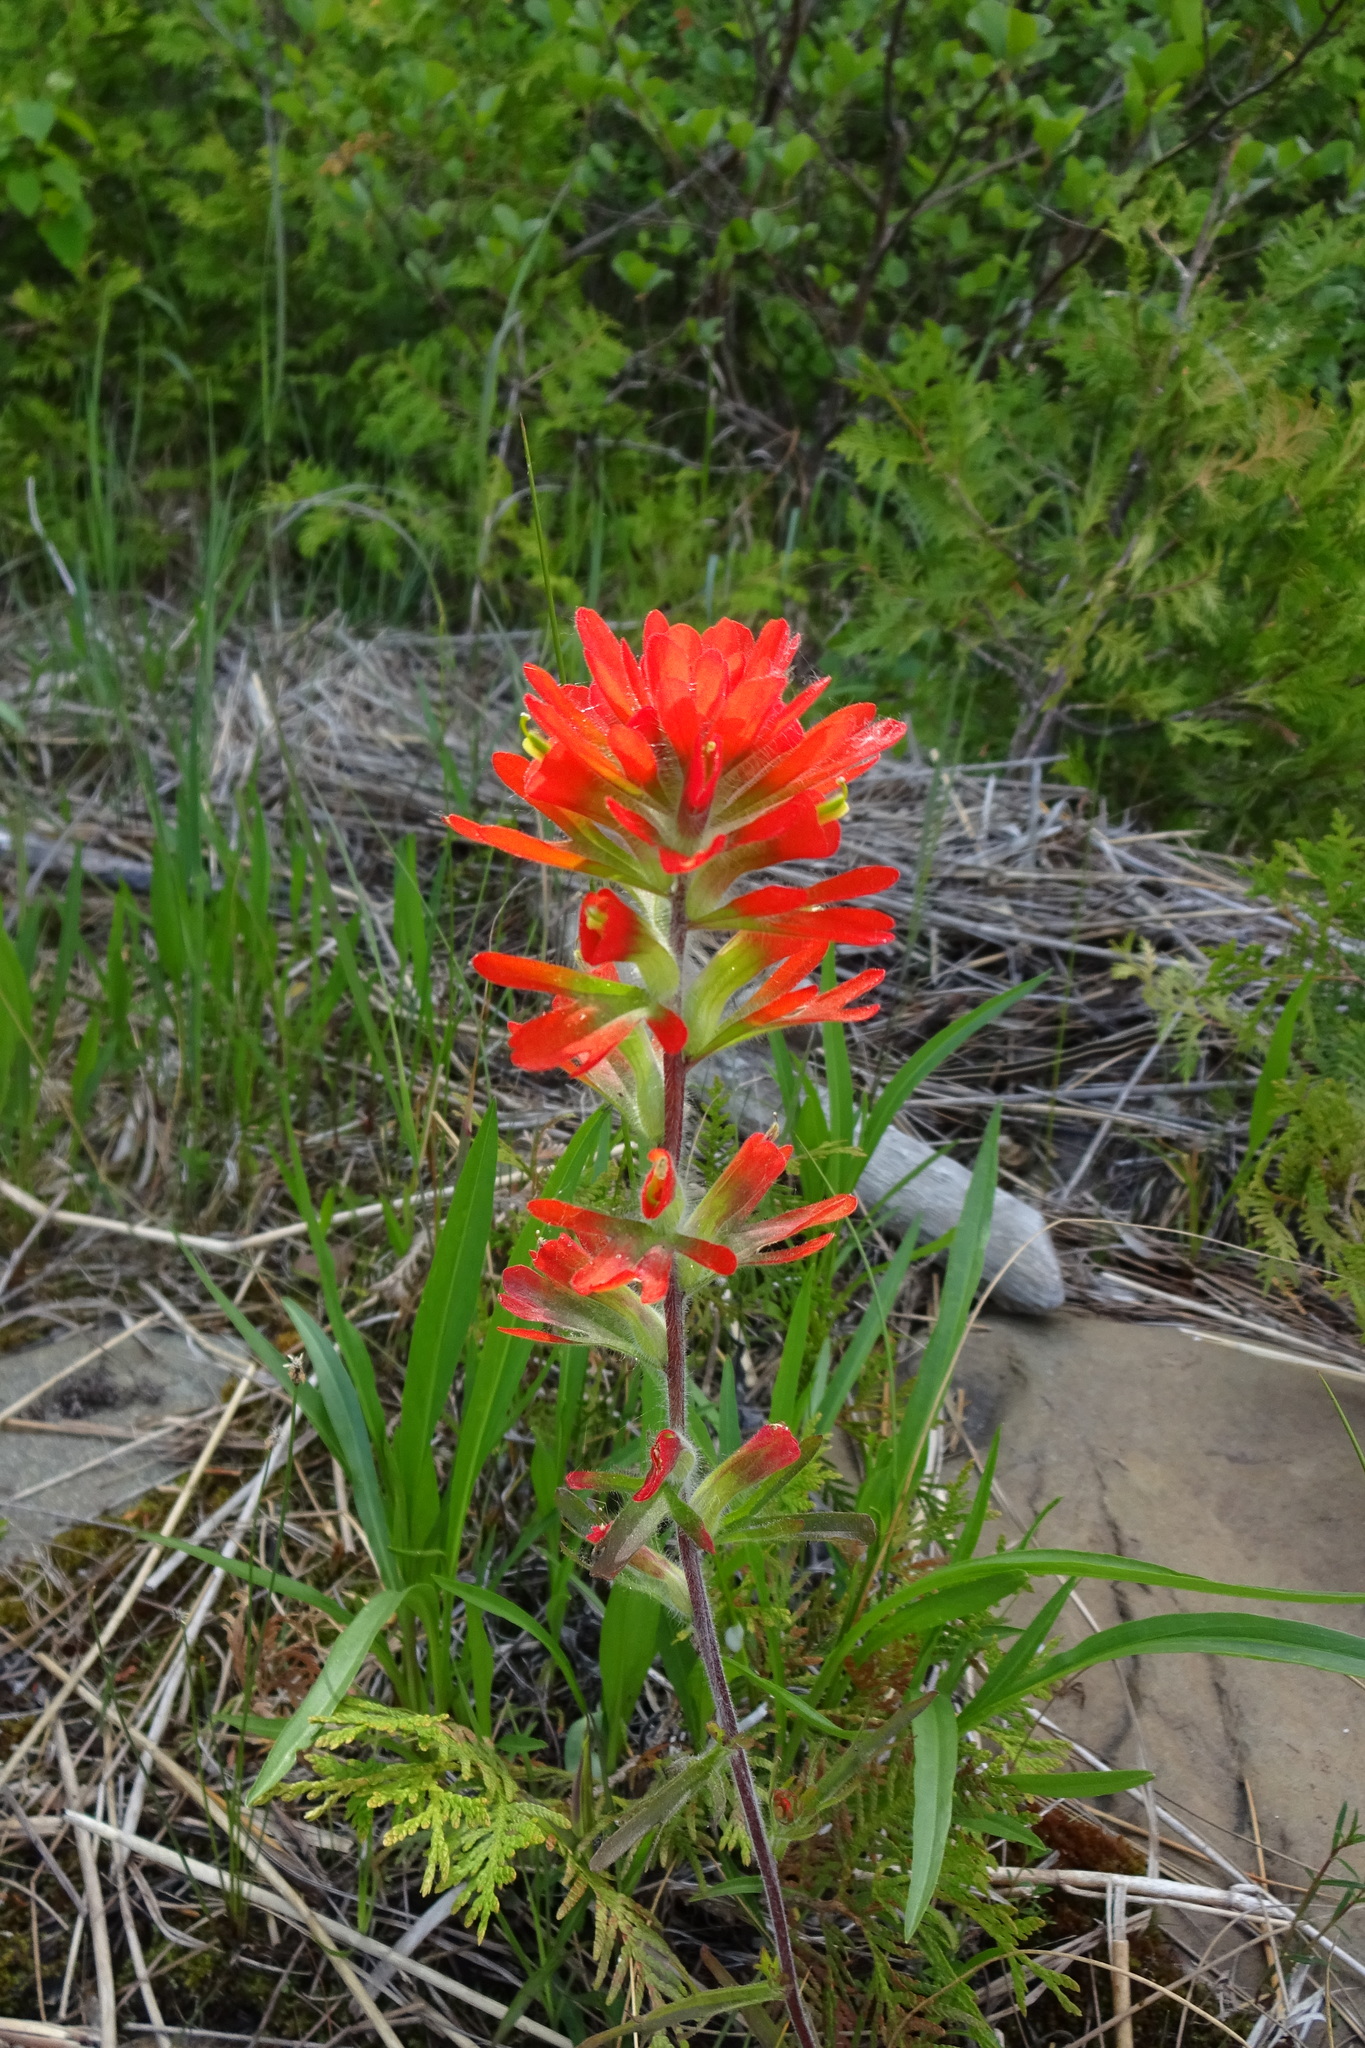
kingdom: Plantae
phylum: Tracheophyta
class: Magnoliopsida
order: Lamiales
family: Orobanchaceae
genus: Castilleja
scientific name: Castilleja coccinea
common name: Scarlet paintbrush
